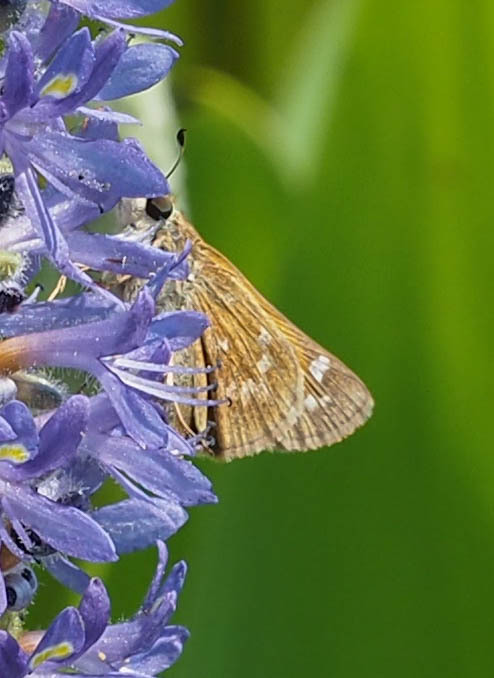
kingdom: Animalia
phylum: Arthropoda
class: Insecta
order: Lepidoptera
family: Hesperiidae
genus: Atalopedes
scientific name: Atalopedes
